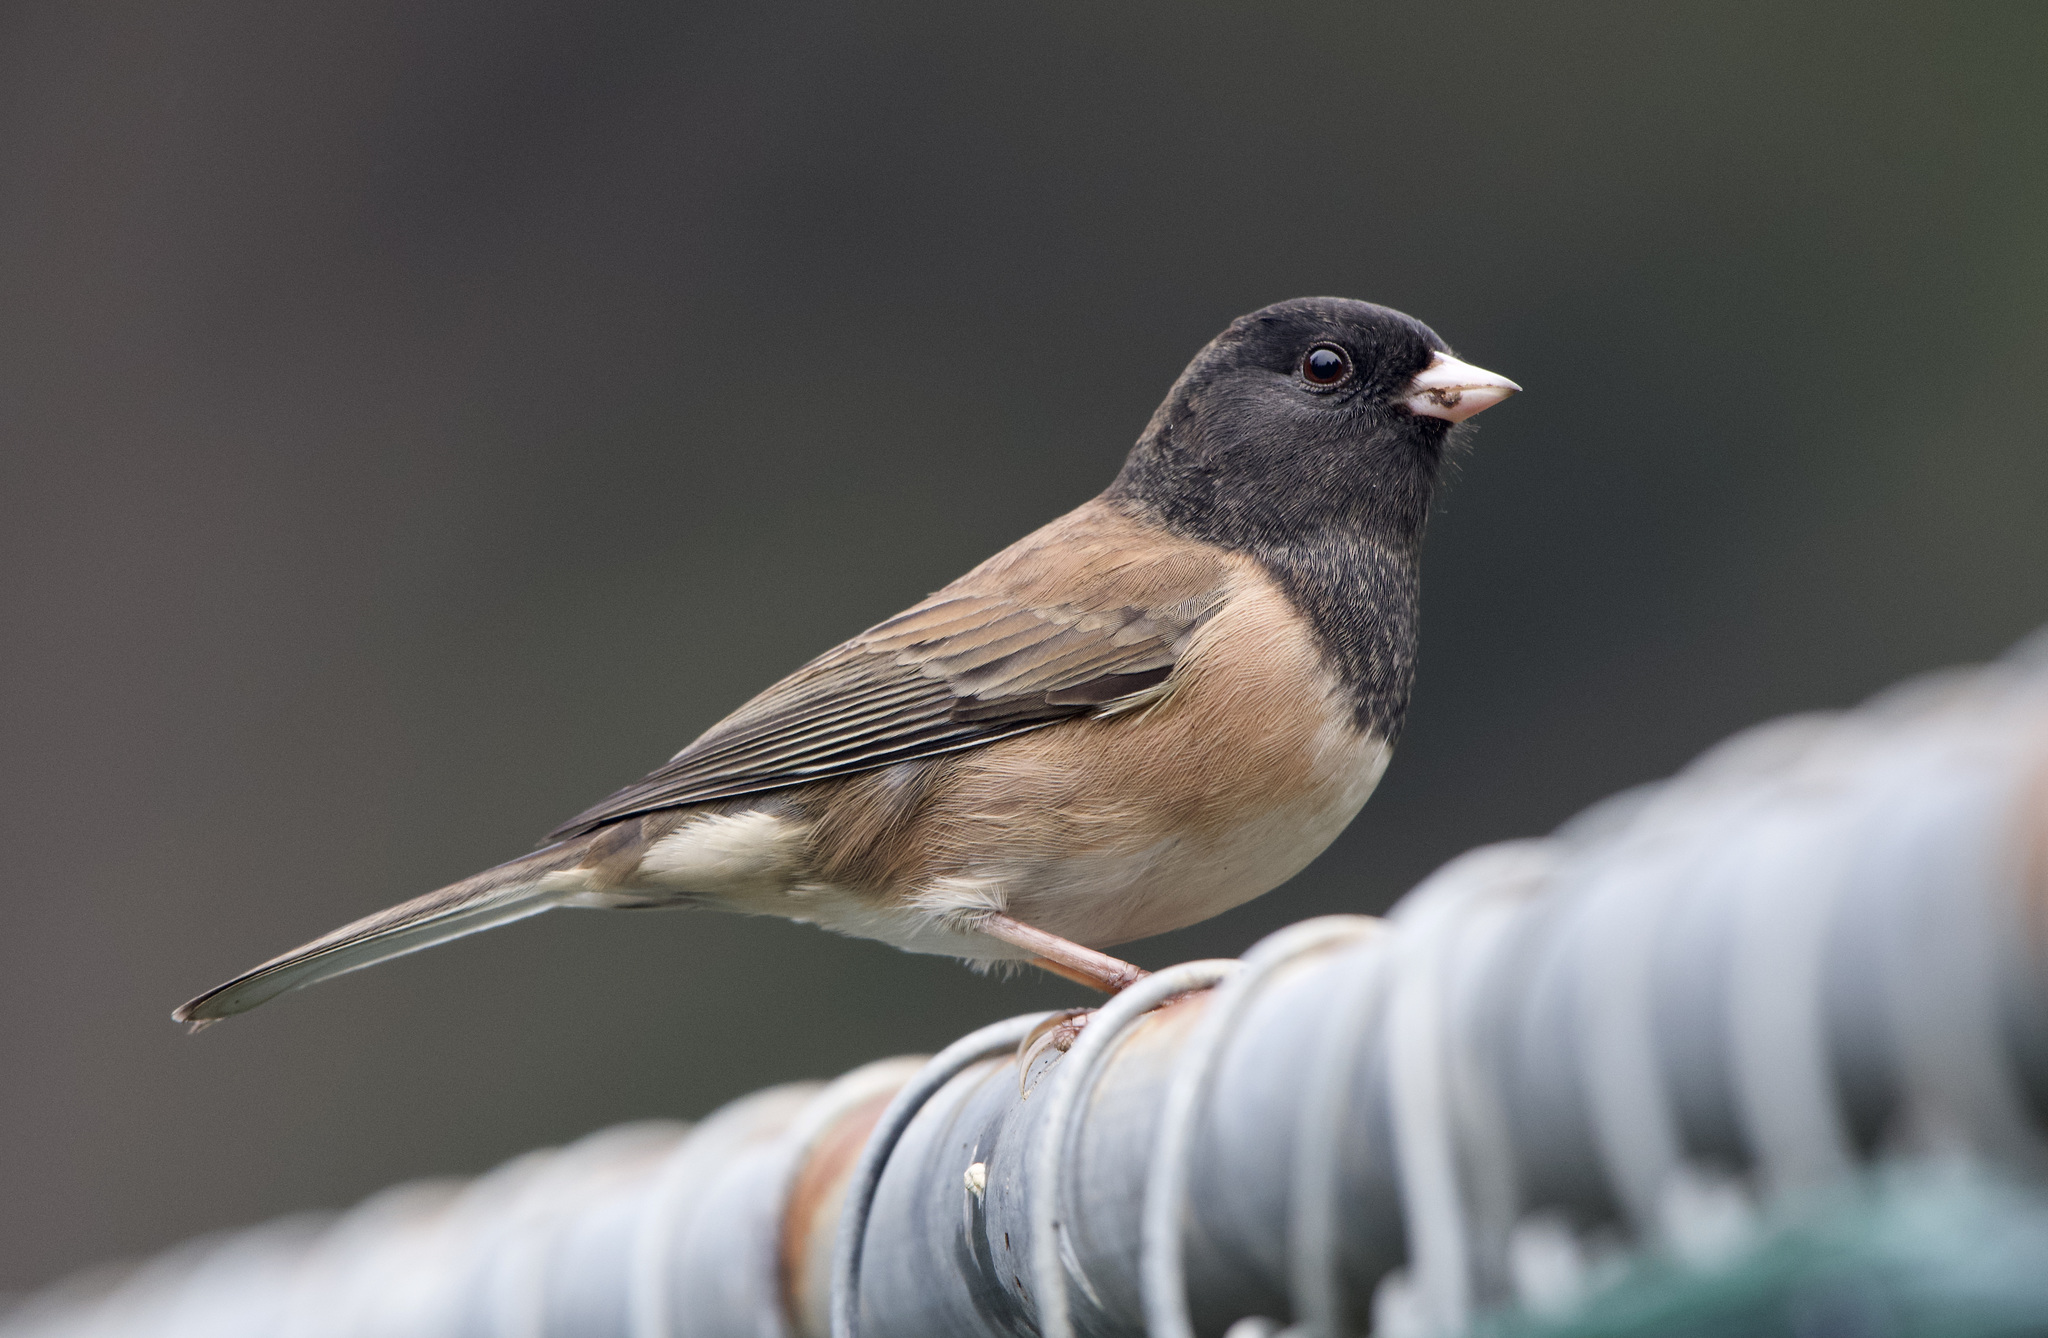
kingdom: Animalia
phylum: Chordata
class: Aves
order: Passeriformes
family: Passerellidae
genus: Junco
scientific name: Junco hyemalis
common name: Dark-eyed junco
